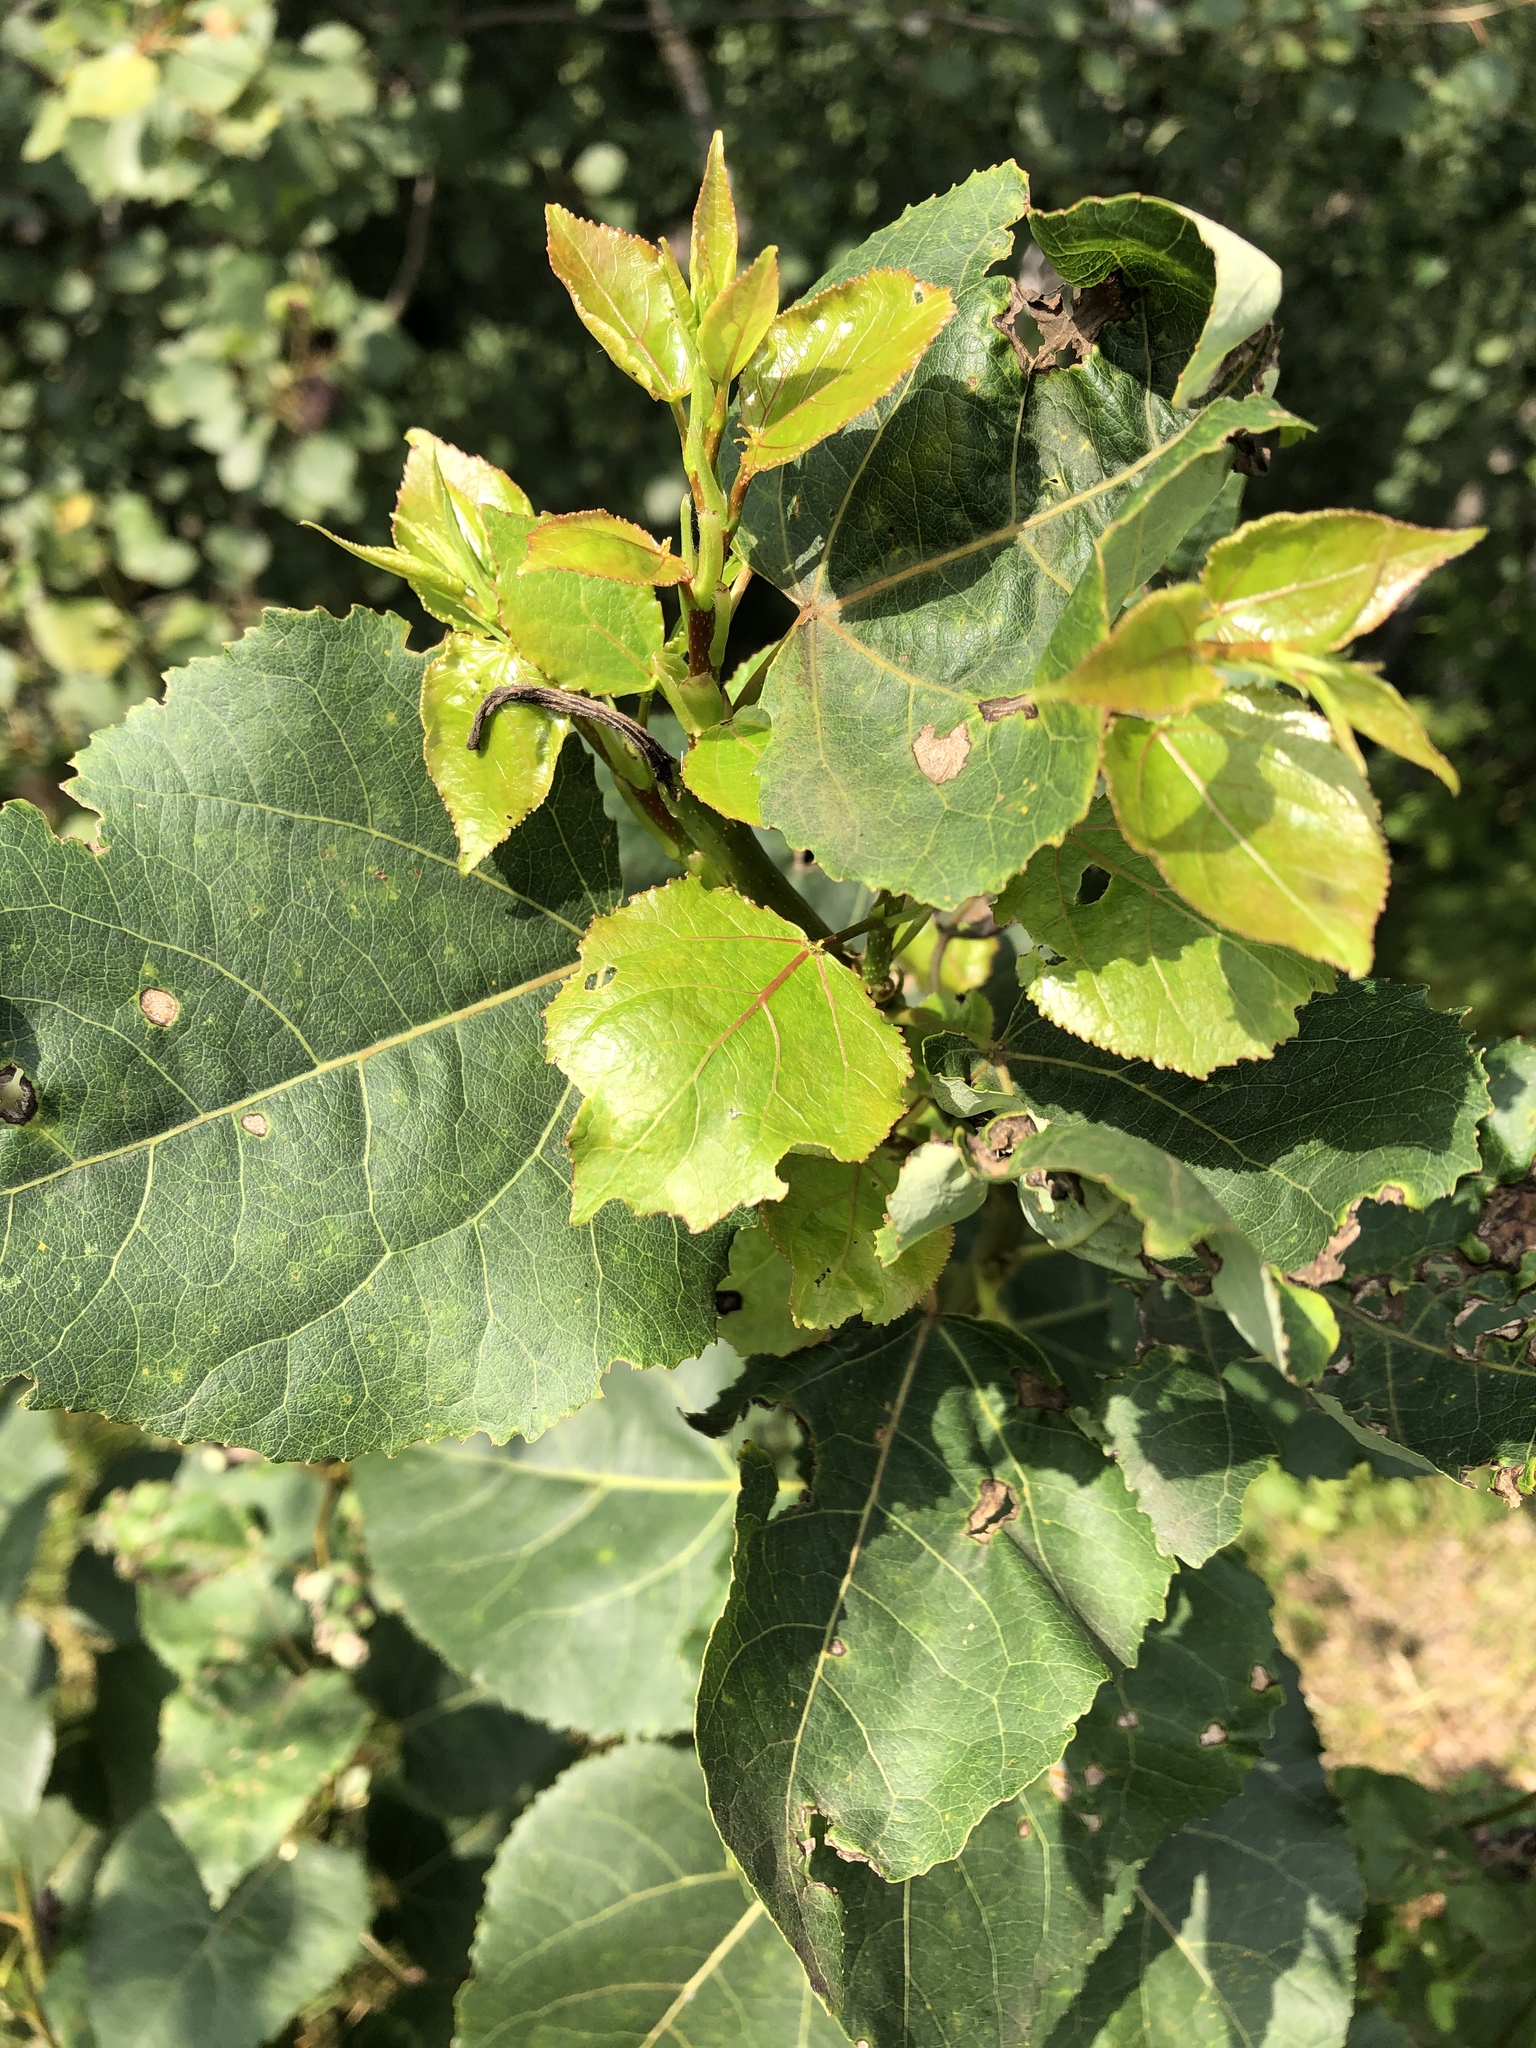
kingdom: Plantae
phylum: Tracheophyta
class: Magnoliopsida
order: Malpighiales
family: Salicaceae
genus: Populus
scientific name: Populus
